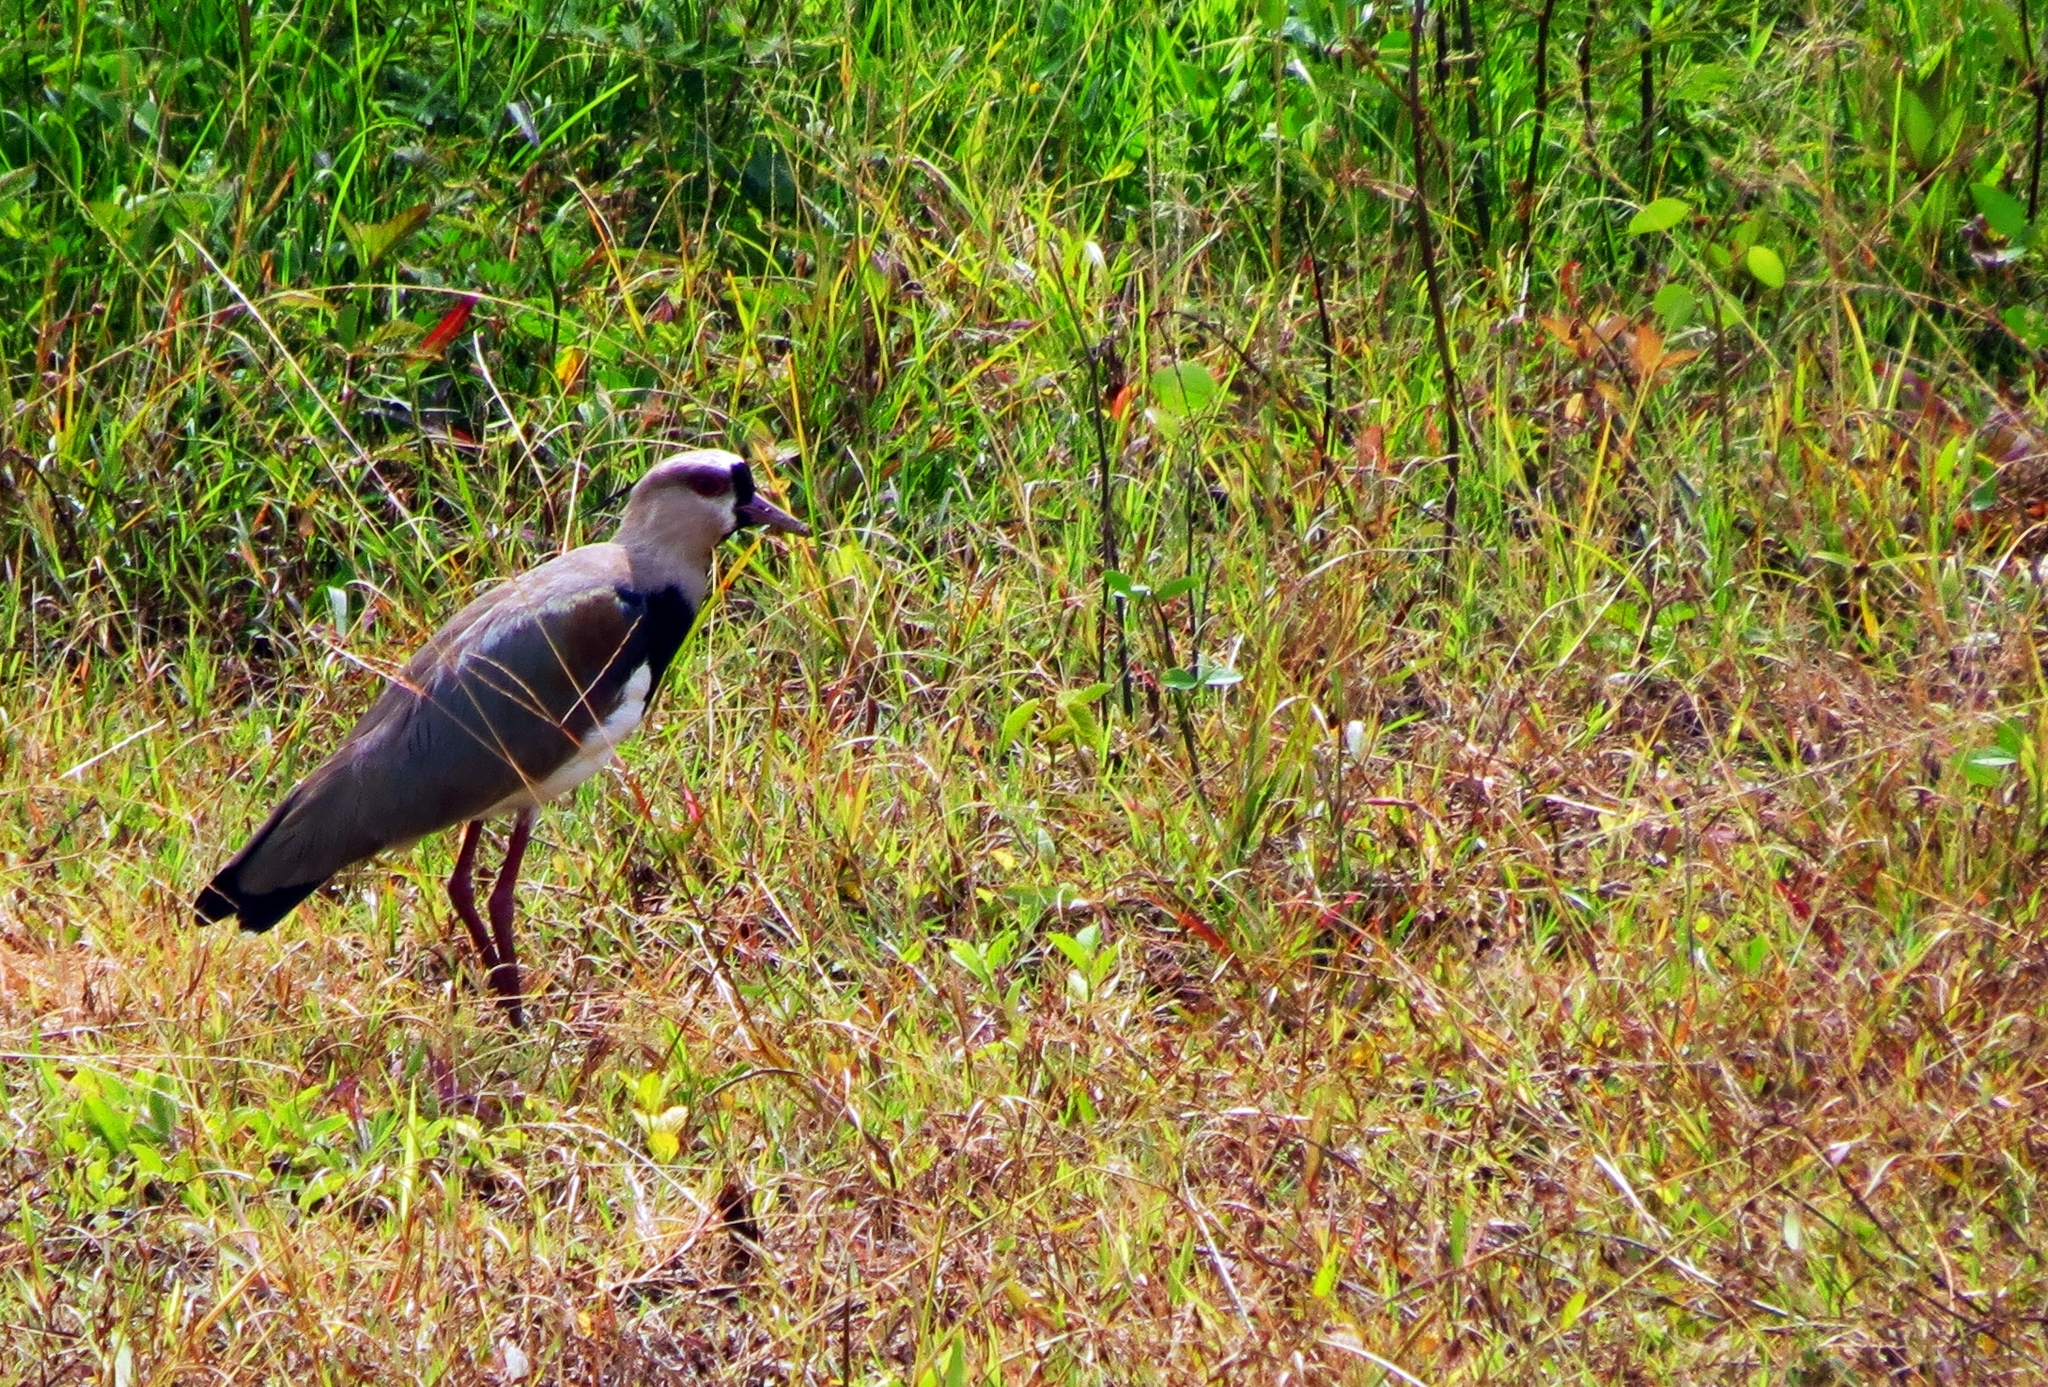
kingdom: Animalia
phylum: Chordata
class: Aves
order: Charadriiformes
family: Charadriidae
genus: Vanellus
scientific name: Vanellus chilensis
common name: Southern lapwing
